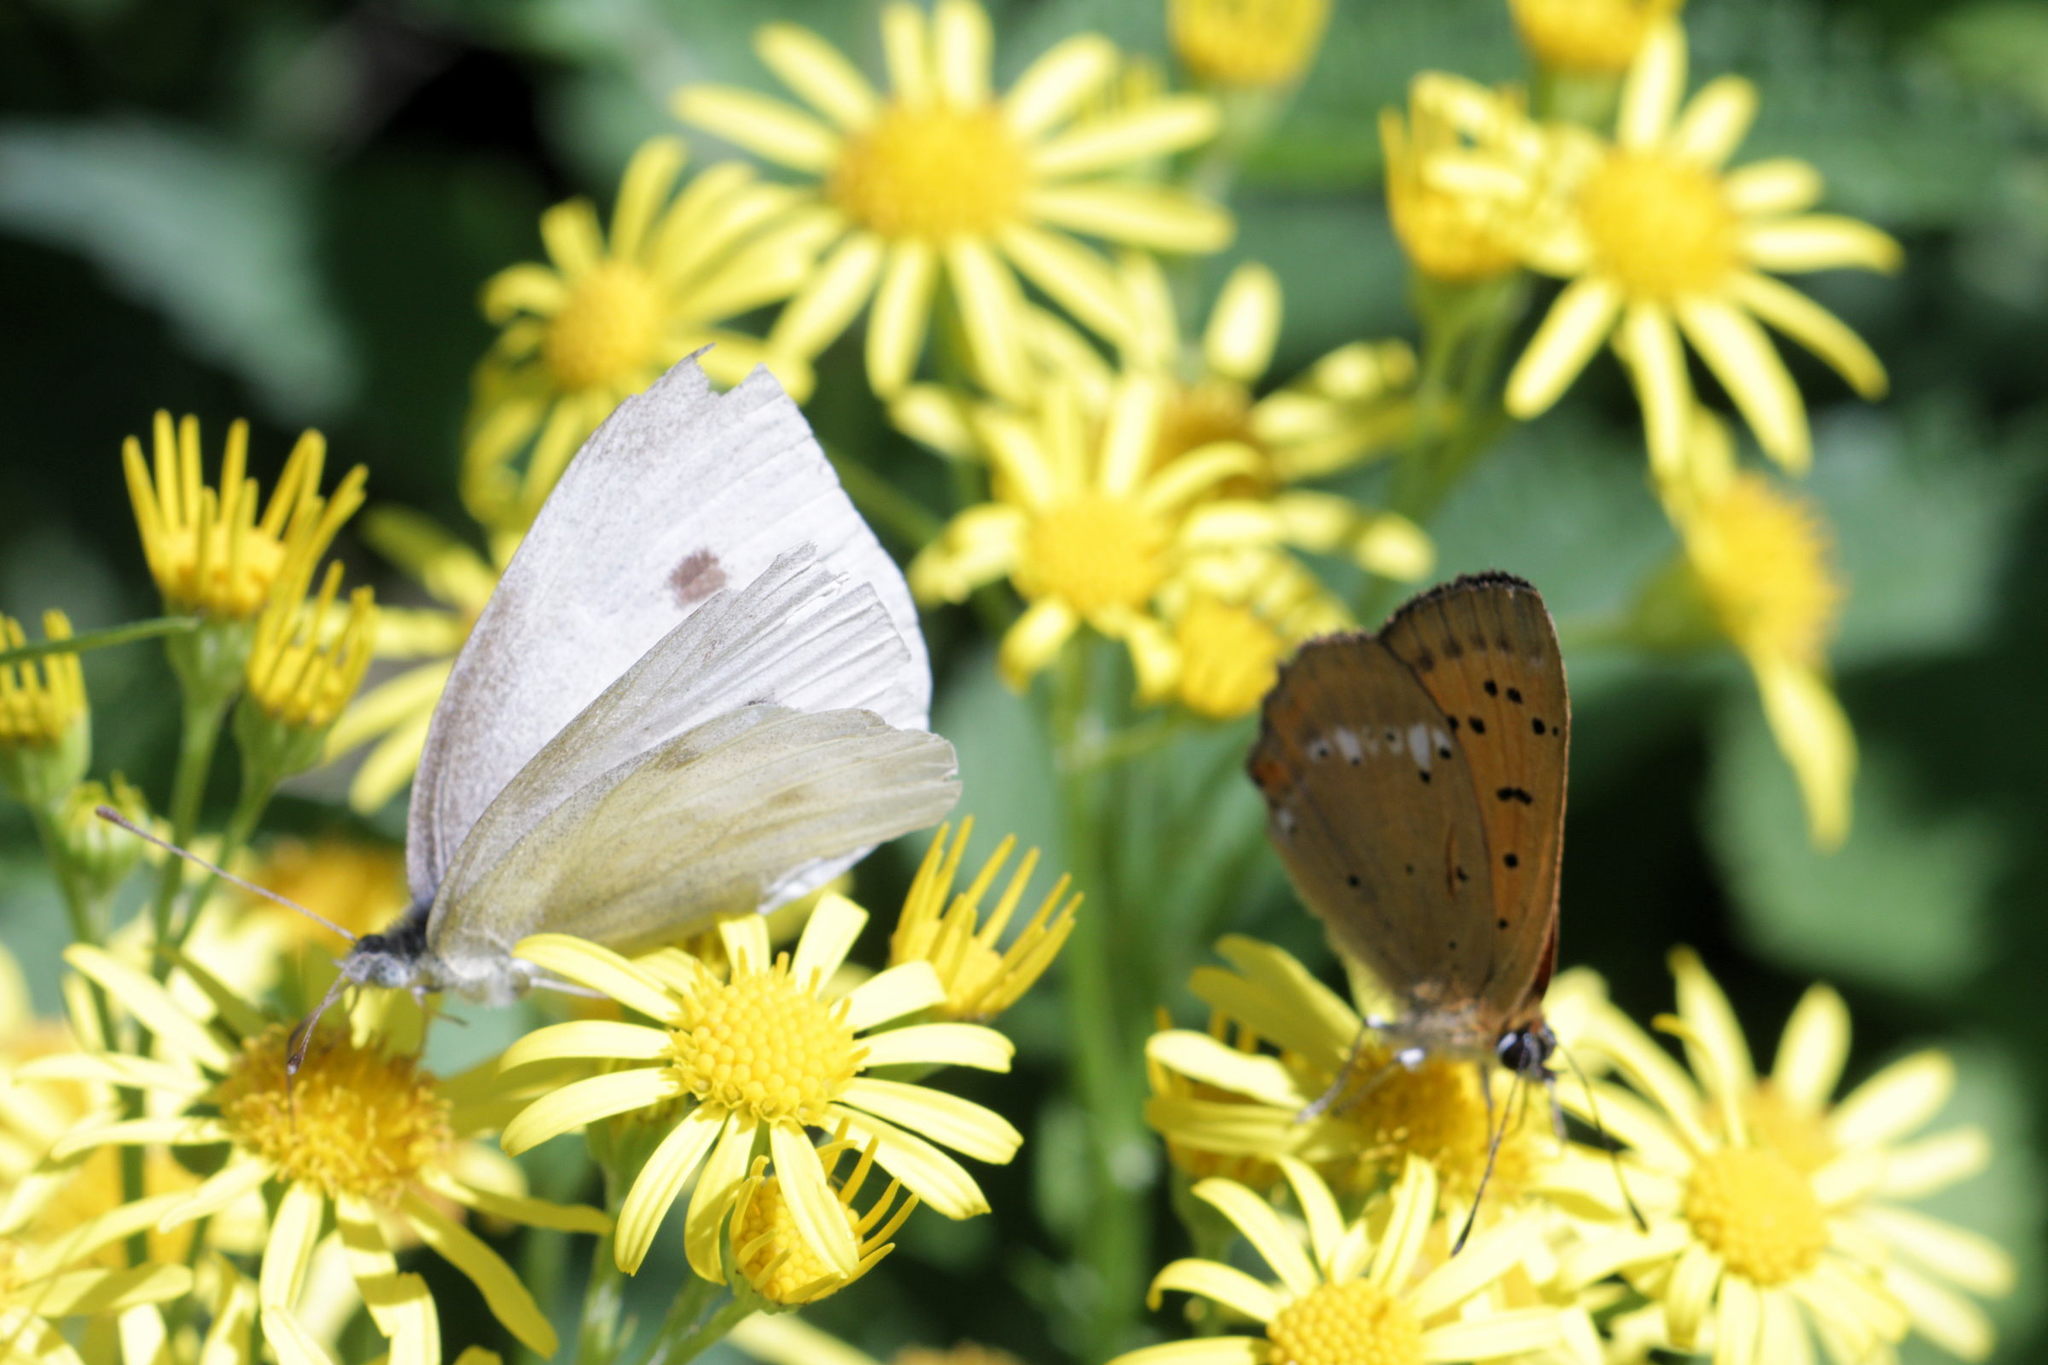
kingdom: Animalia
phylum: Arthropoda
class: Insecta
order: Lepidoptera
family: Pieridae
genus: Pieris
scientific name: Pieris rapae
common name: Small white
